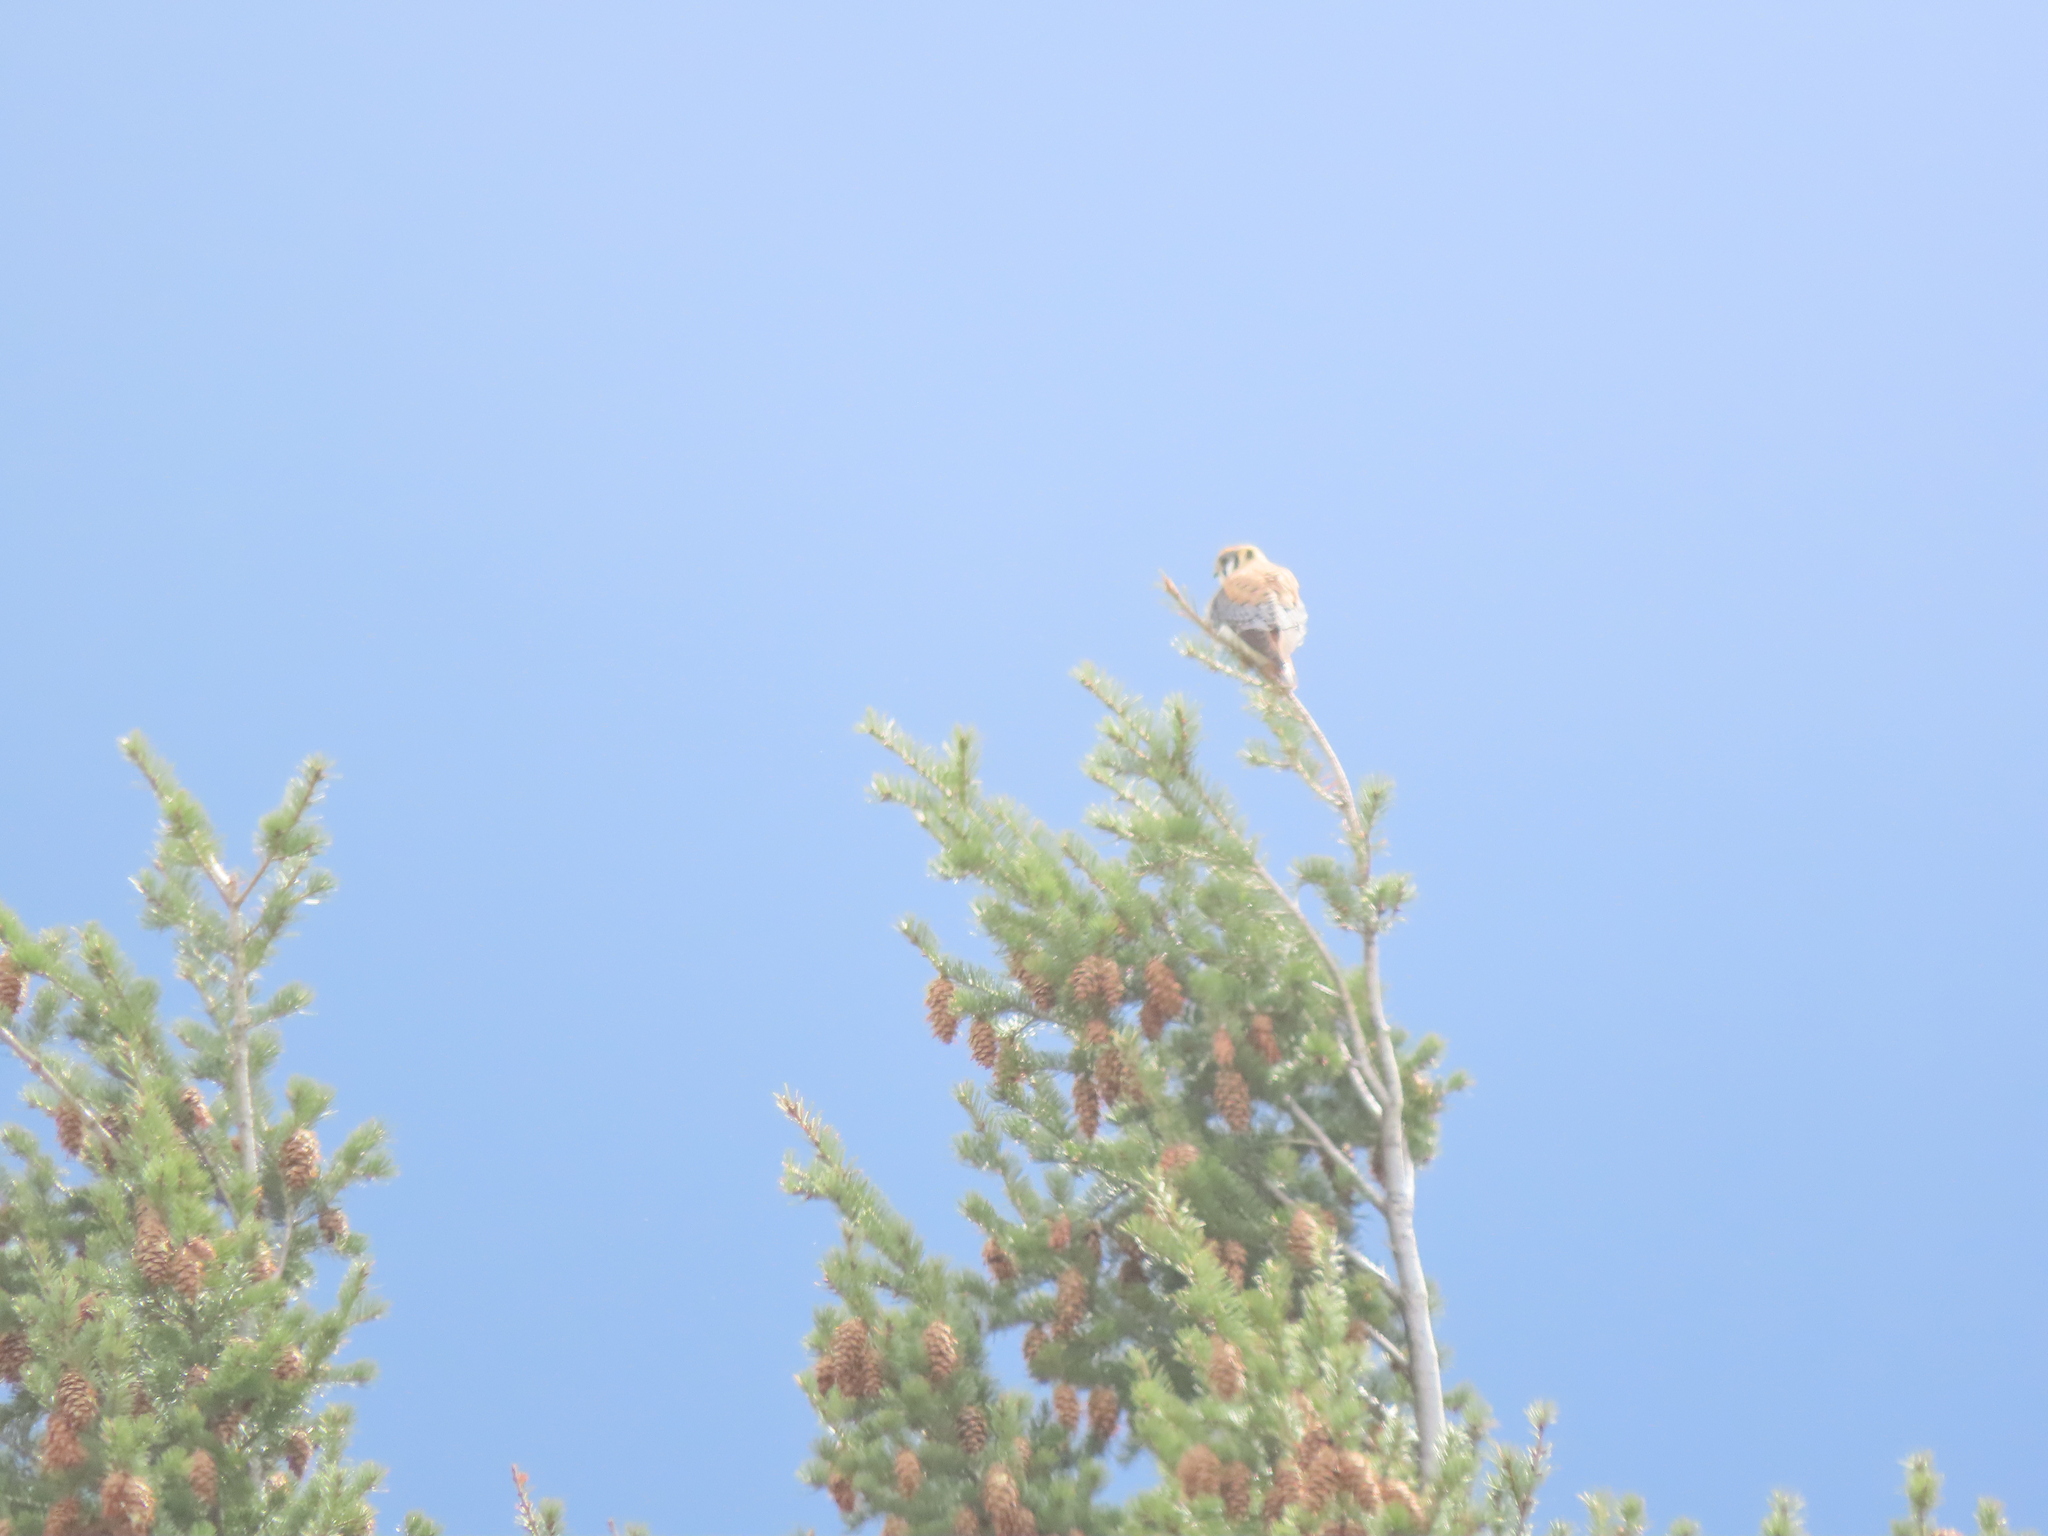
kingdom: Animalia
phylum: Chordata
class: Aves
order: Falconiformes
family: Falconidae
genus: Falco
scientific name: Falco sparverius
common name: American kestrel
